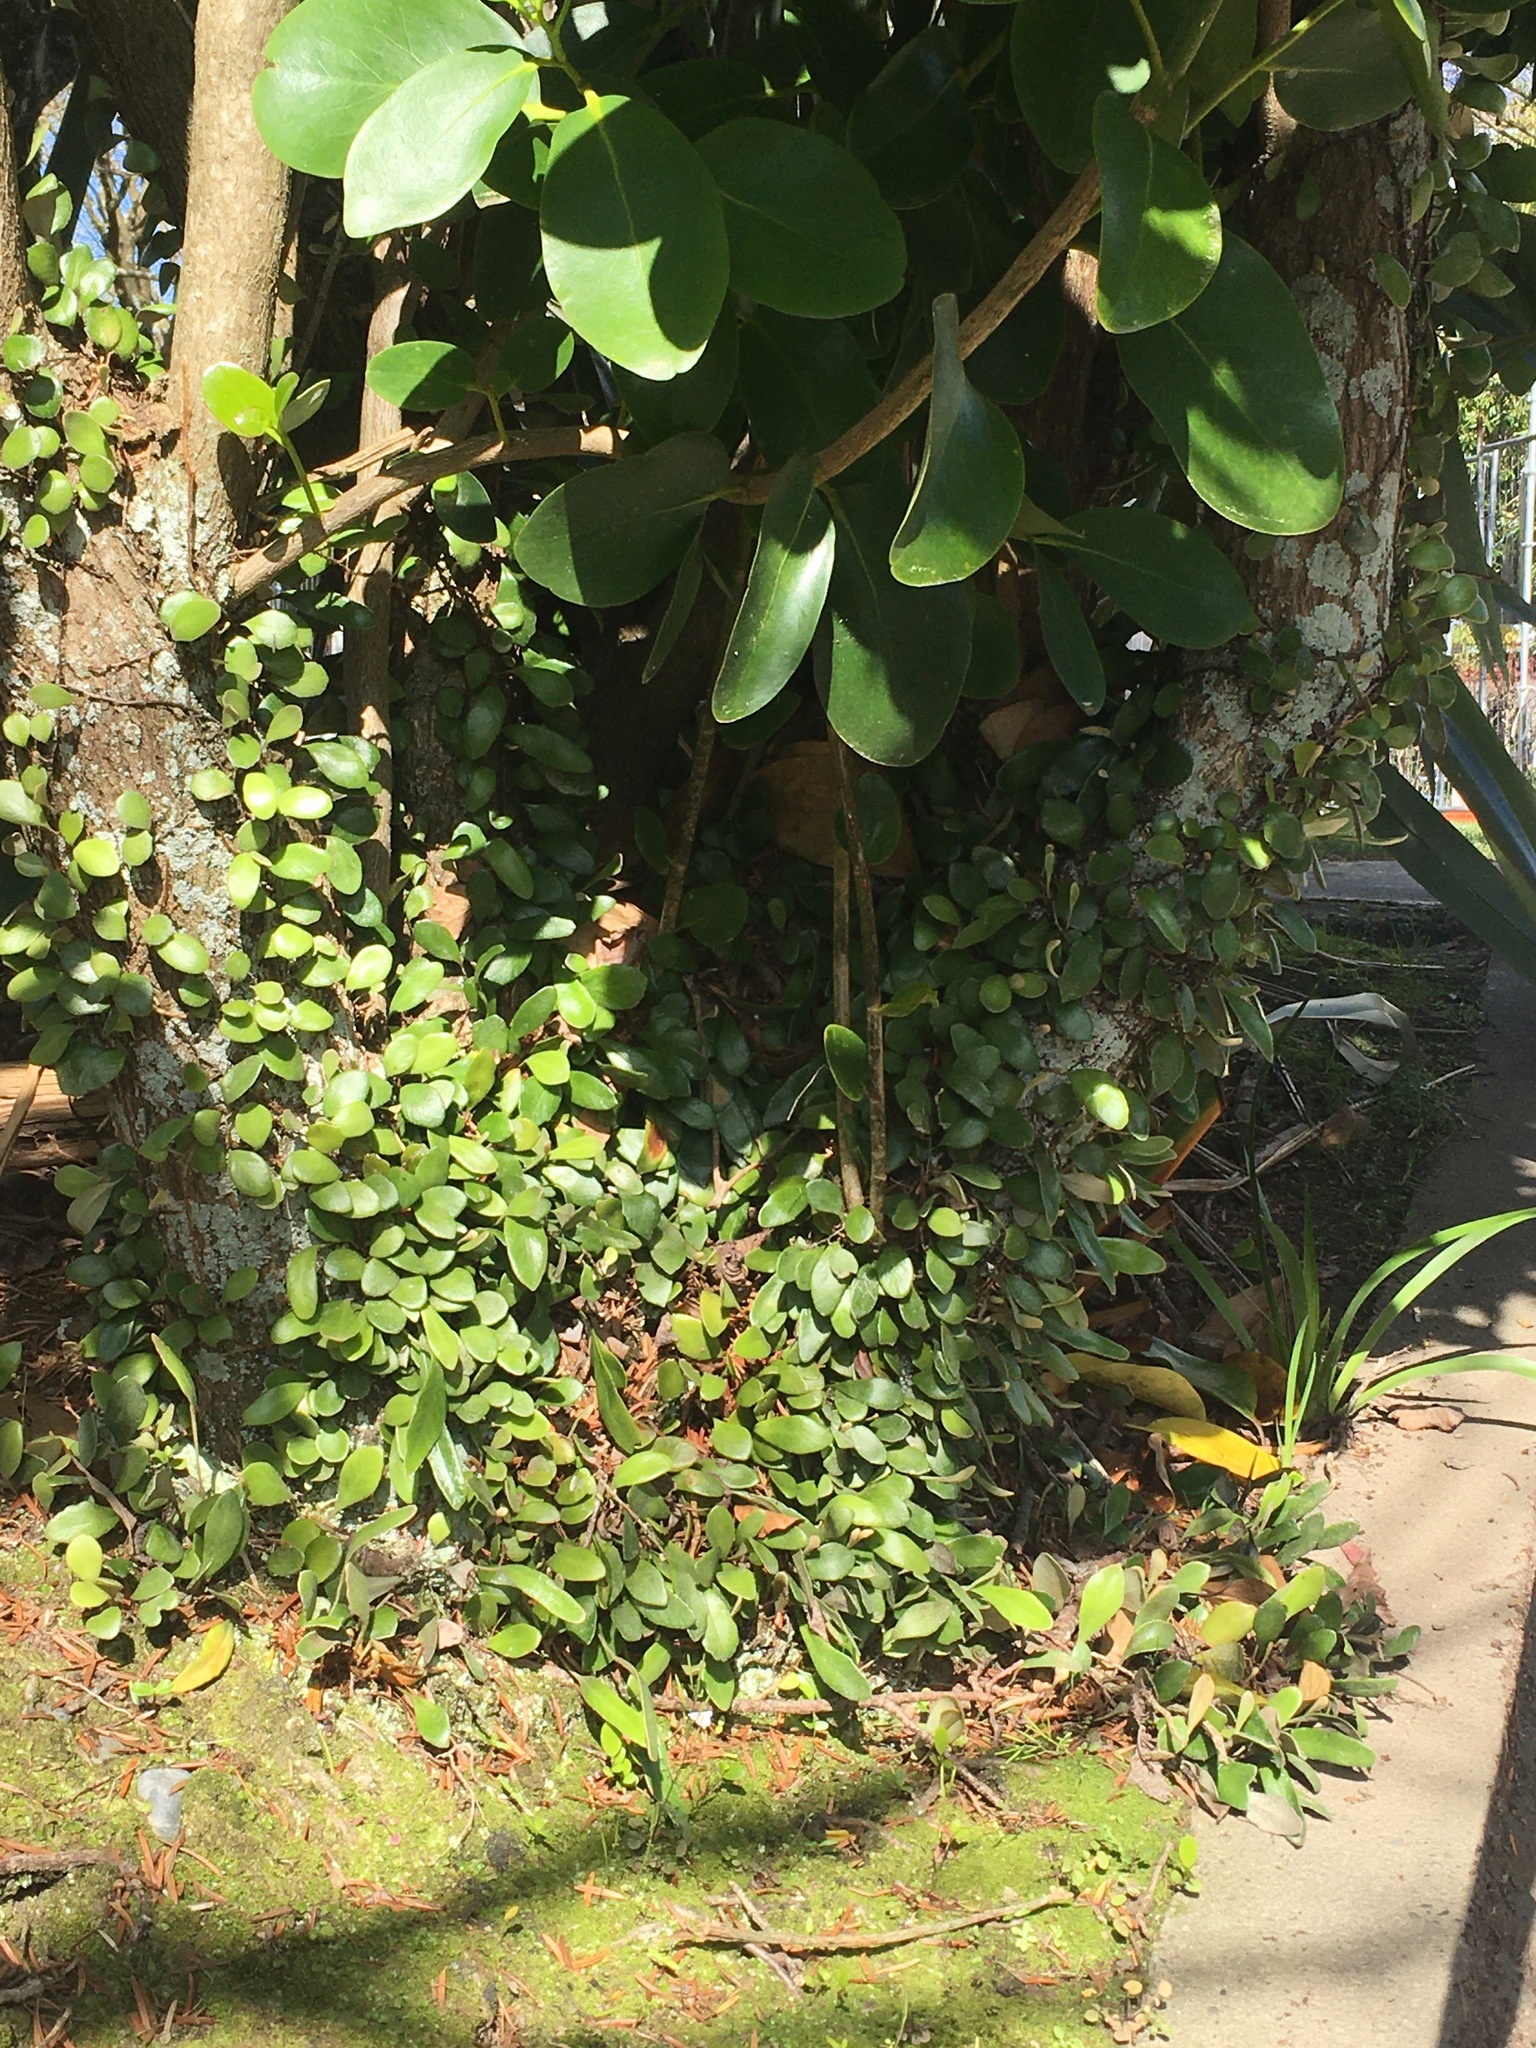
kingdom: Plantae
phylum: Tracheophyta
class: Polypodiopsida
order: Polypodiales
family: Polypodiaceae
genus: Pyrrosia
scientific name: Pyrrosia eleagnifolia
